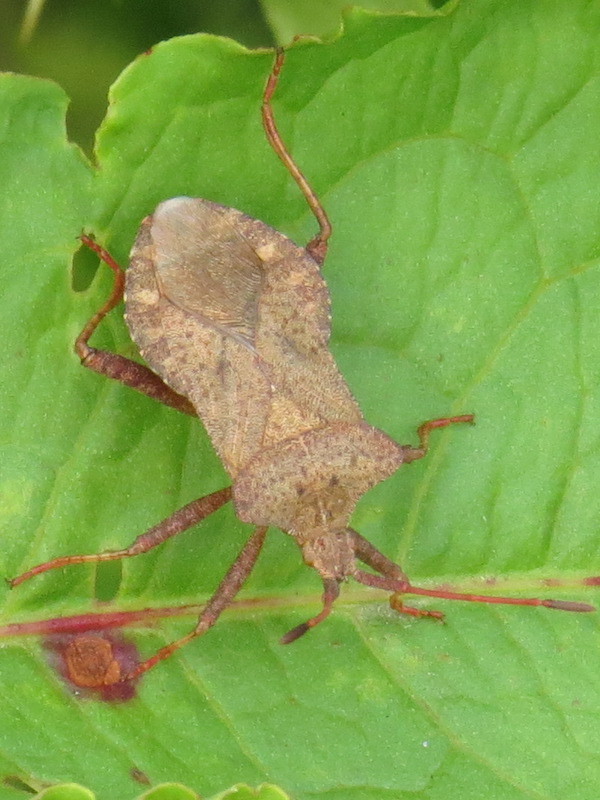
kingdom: Animalia
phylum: Arthropoda
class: Insecta
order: Hemiptera
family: Coreidae
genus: Coreus
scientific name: Coreus marginatus
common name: Dock bug
